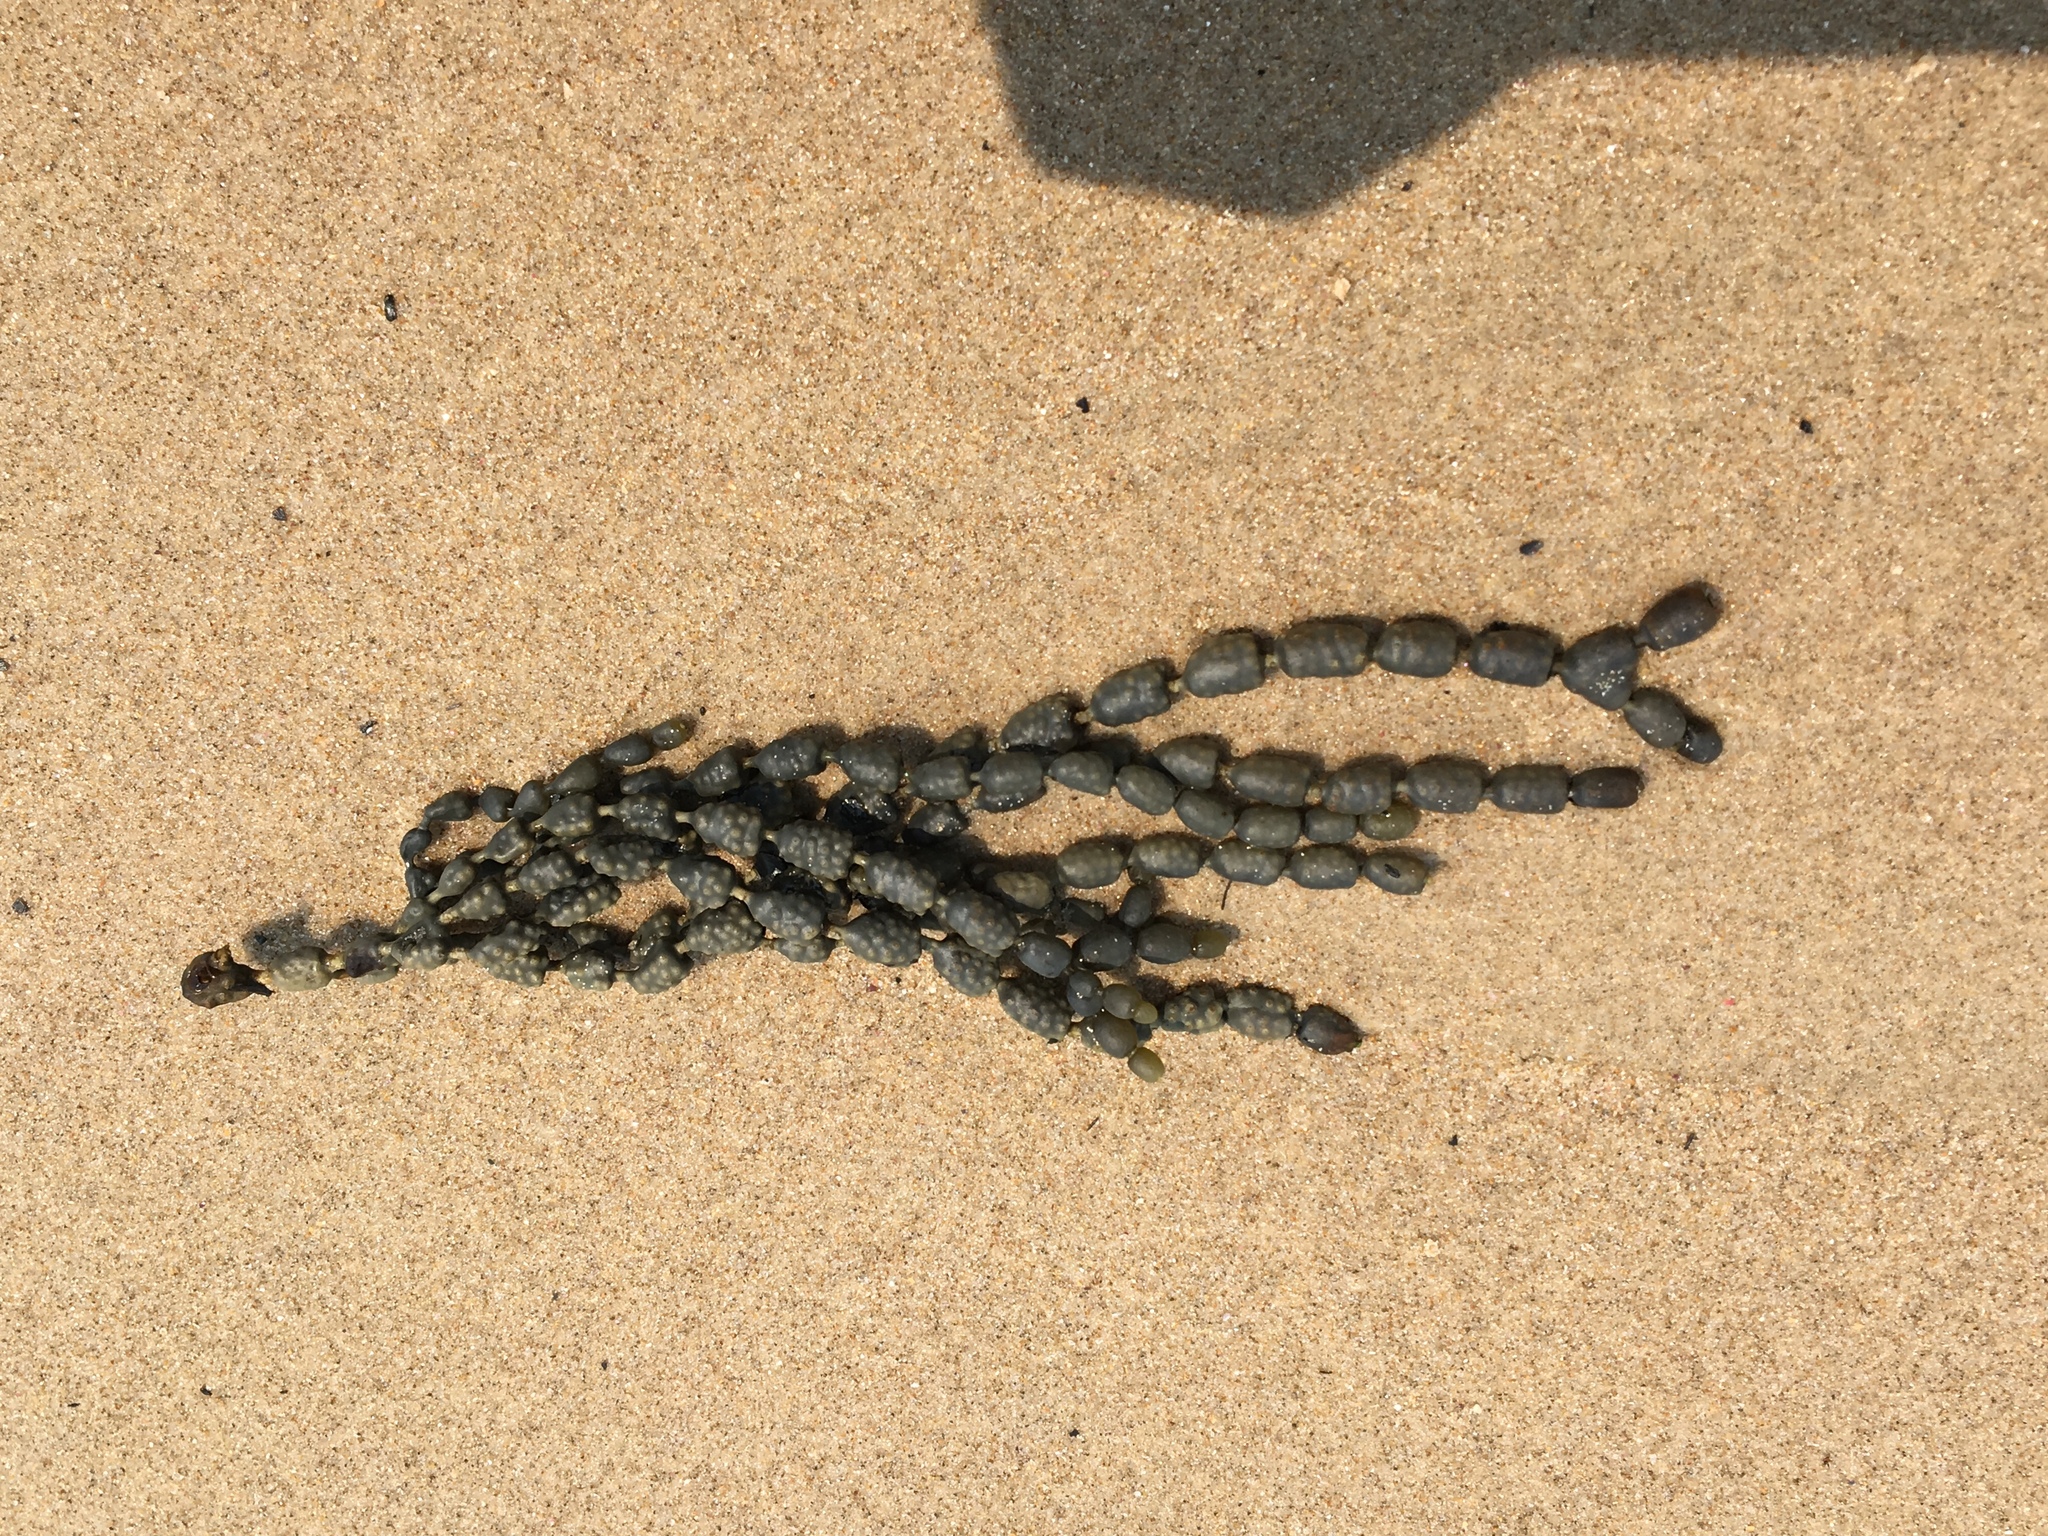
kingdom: Chromista
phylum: Ochrophyta
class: Phaeophyceae
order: Fucales
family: Hormosiraceae
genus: Hormosira
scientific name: Hormosira banksii
